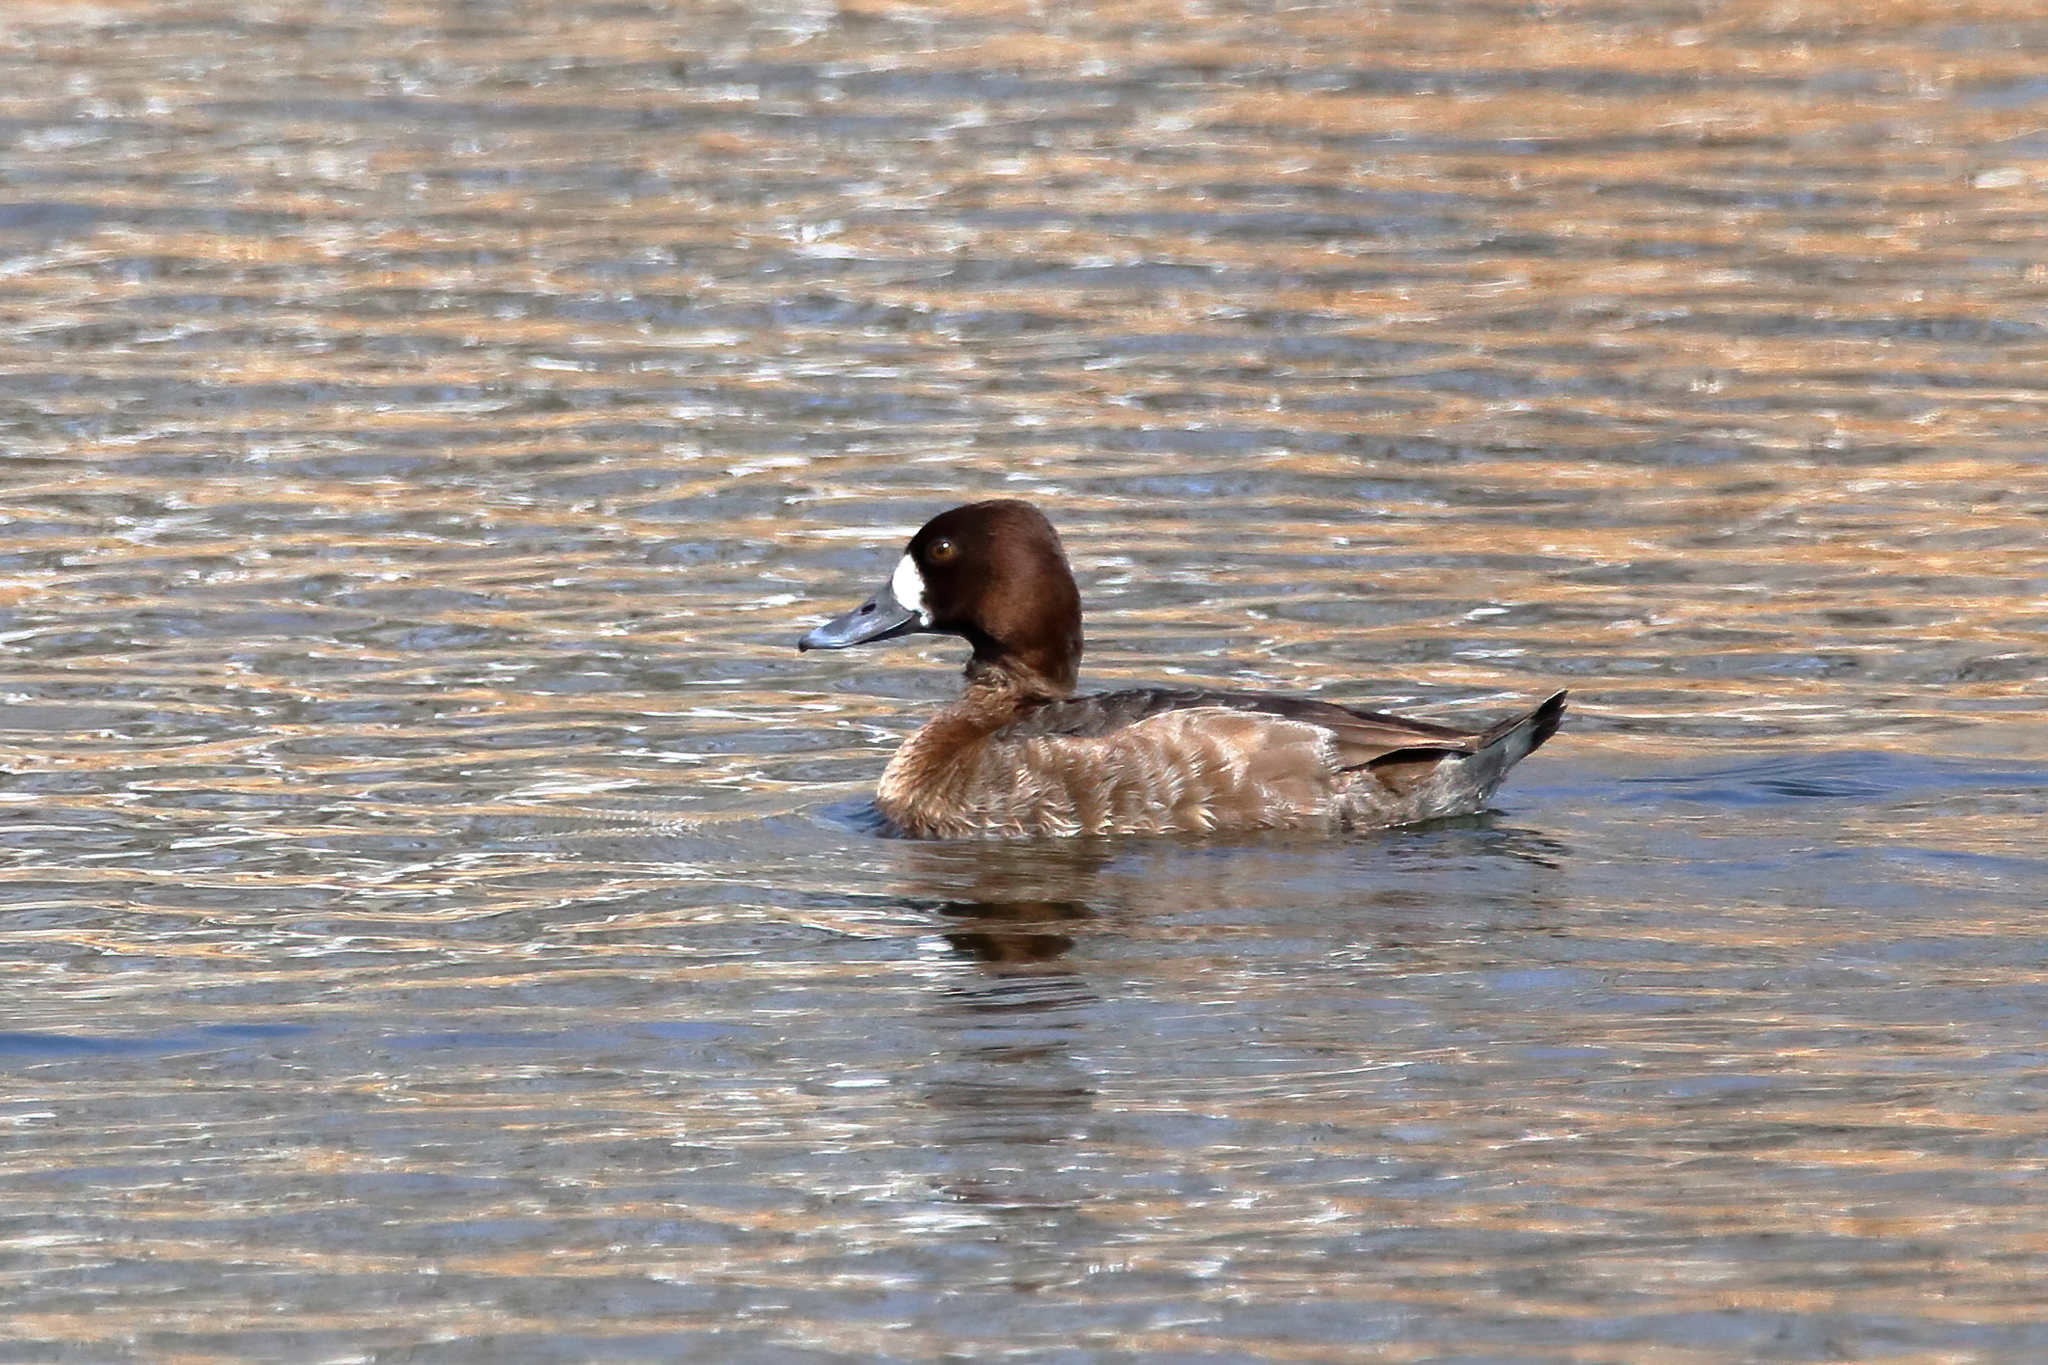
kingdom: Animalia
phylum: Chordata
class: Aves
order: Anseriformes
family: Anatidae
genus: Aythya
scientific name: Aythya affinis
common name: Lesser scaup
